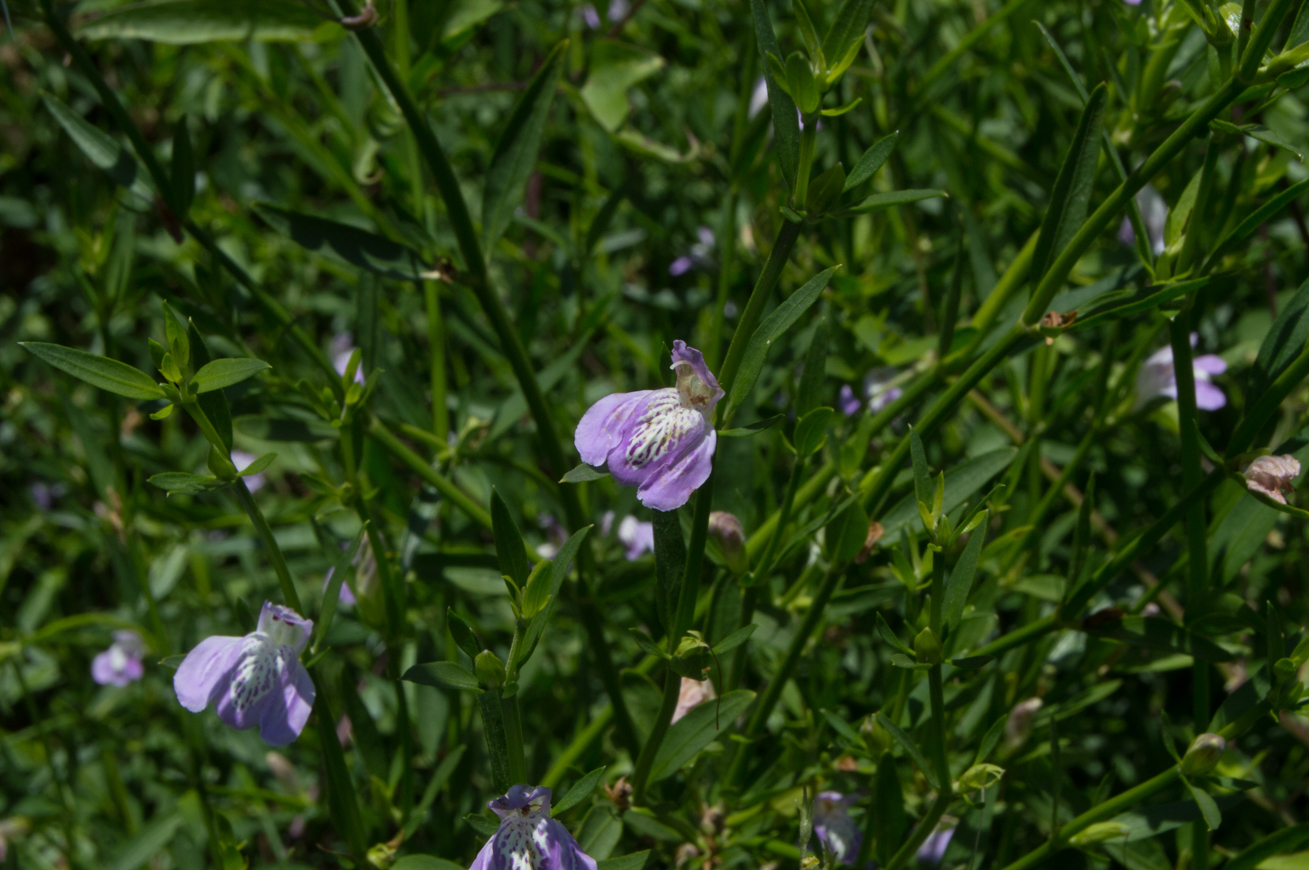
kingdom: Plantae
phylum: Tracheophyta
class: Magnoliopsida
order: Lamiales
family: Acanthaceae
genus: Poikilacanthus
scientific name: Poikilacanthus tweedianus
